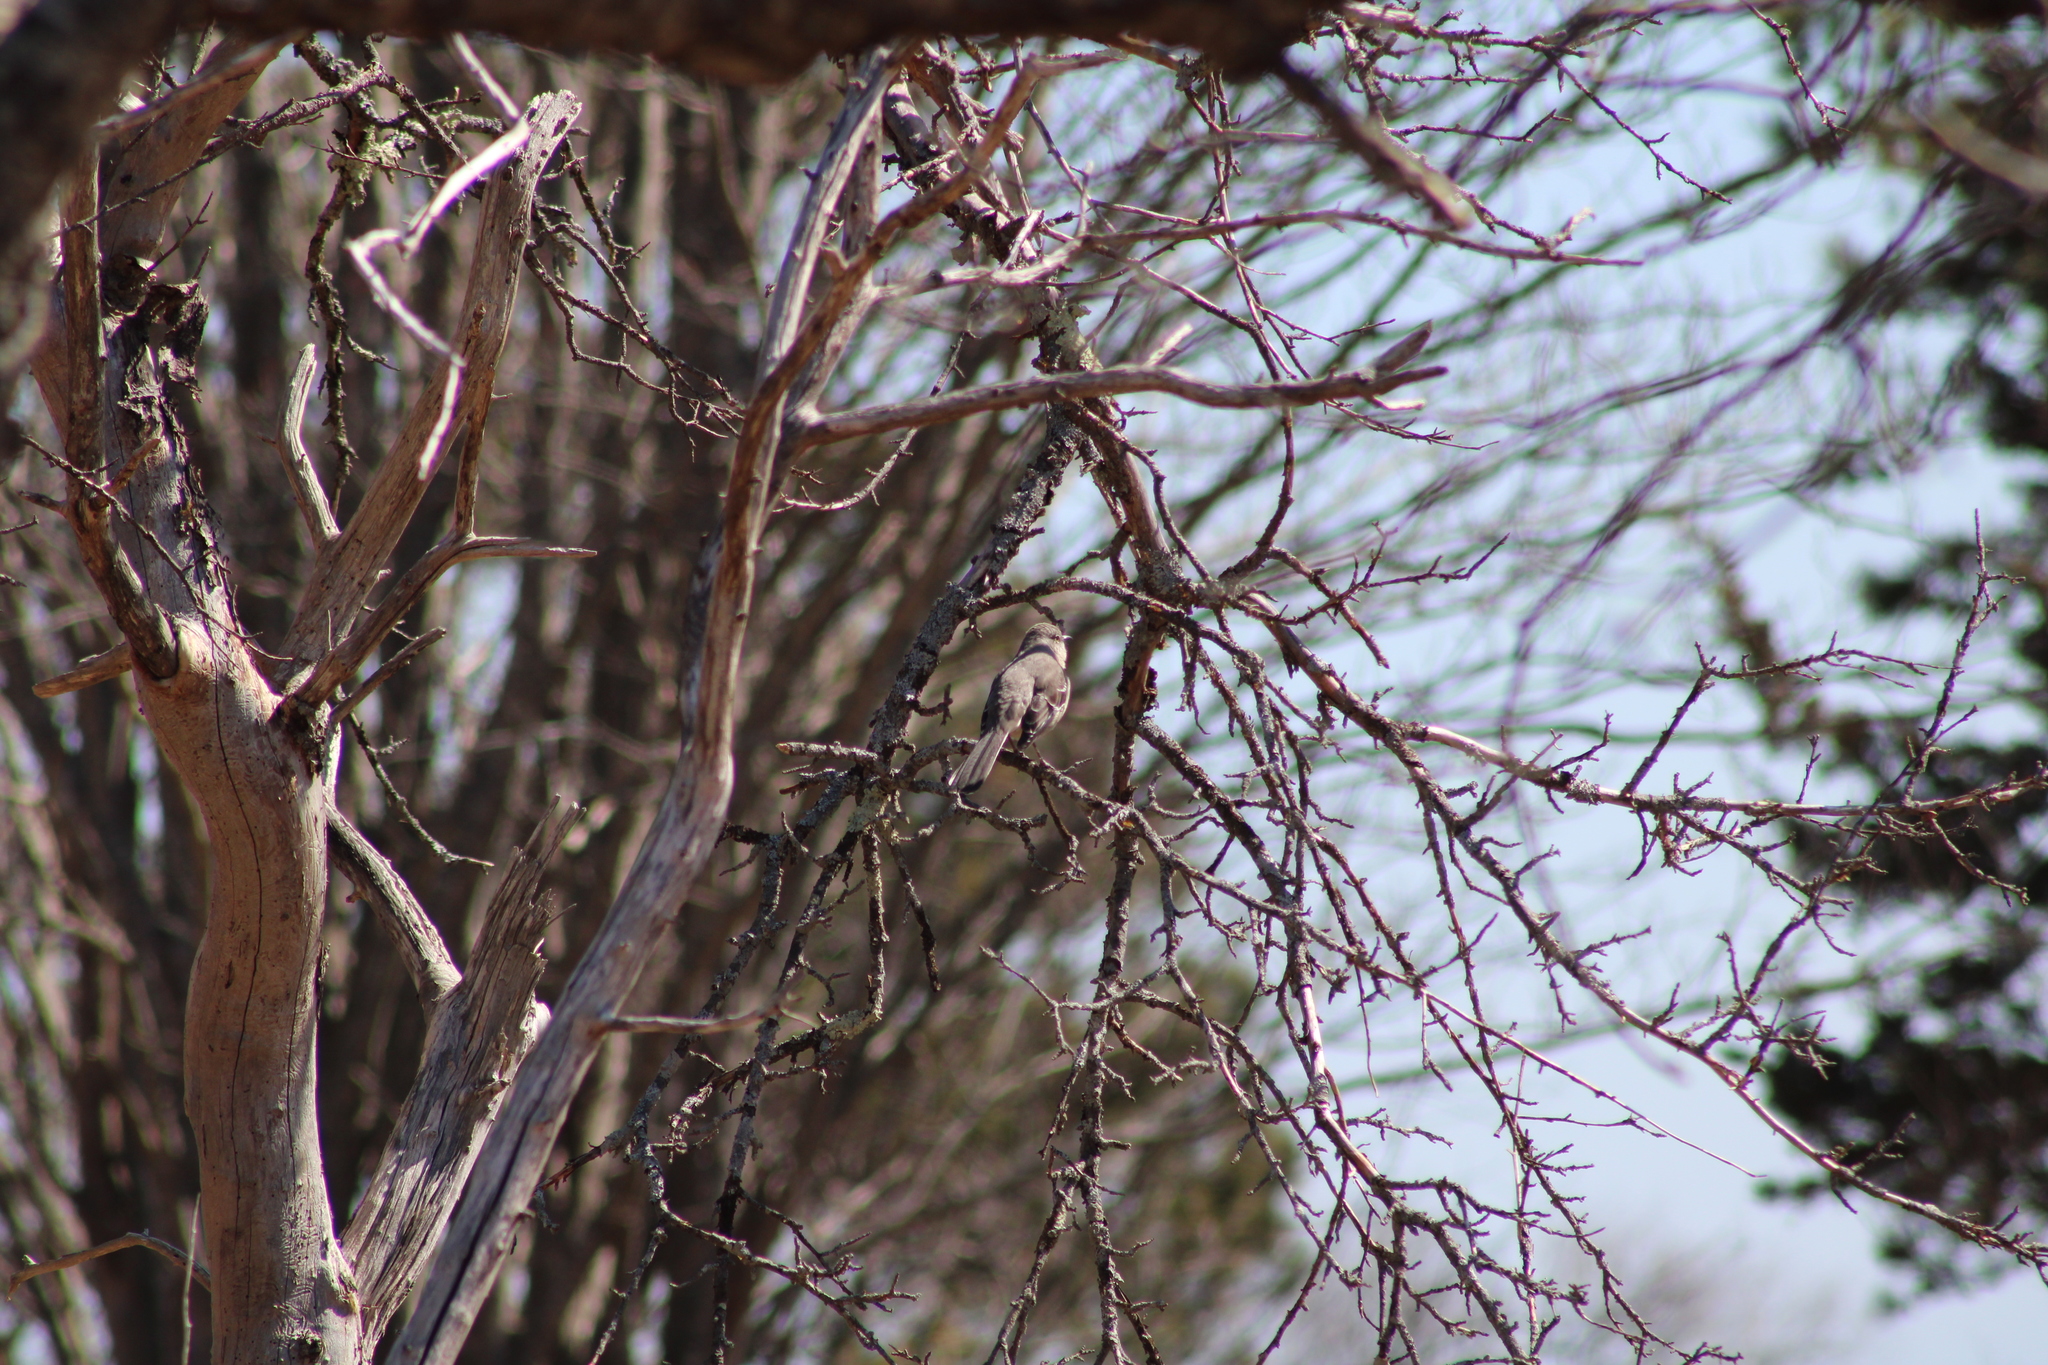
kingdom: Animalia
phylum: Chordata
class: Aves
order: Passeriformes
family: Mimidae
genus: Mimus
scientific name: Mimus polyglottos
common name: Northern mockingbird
